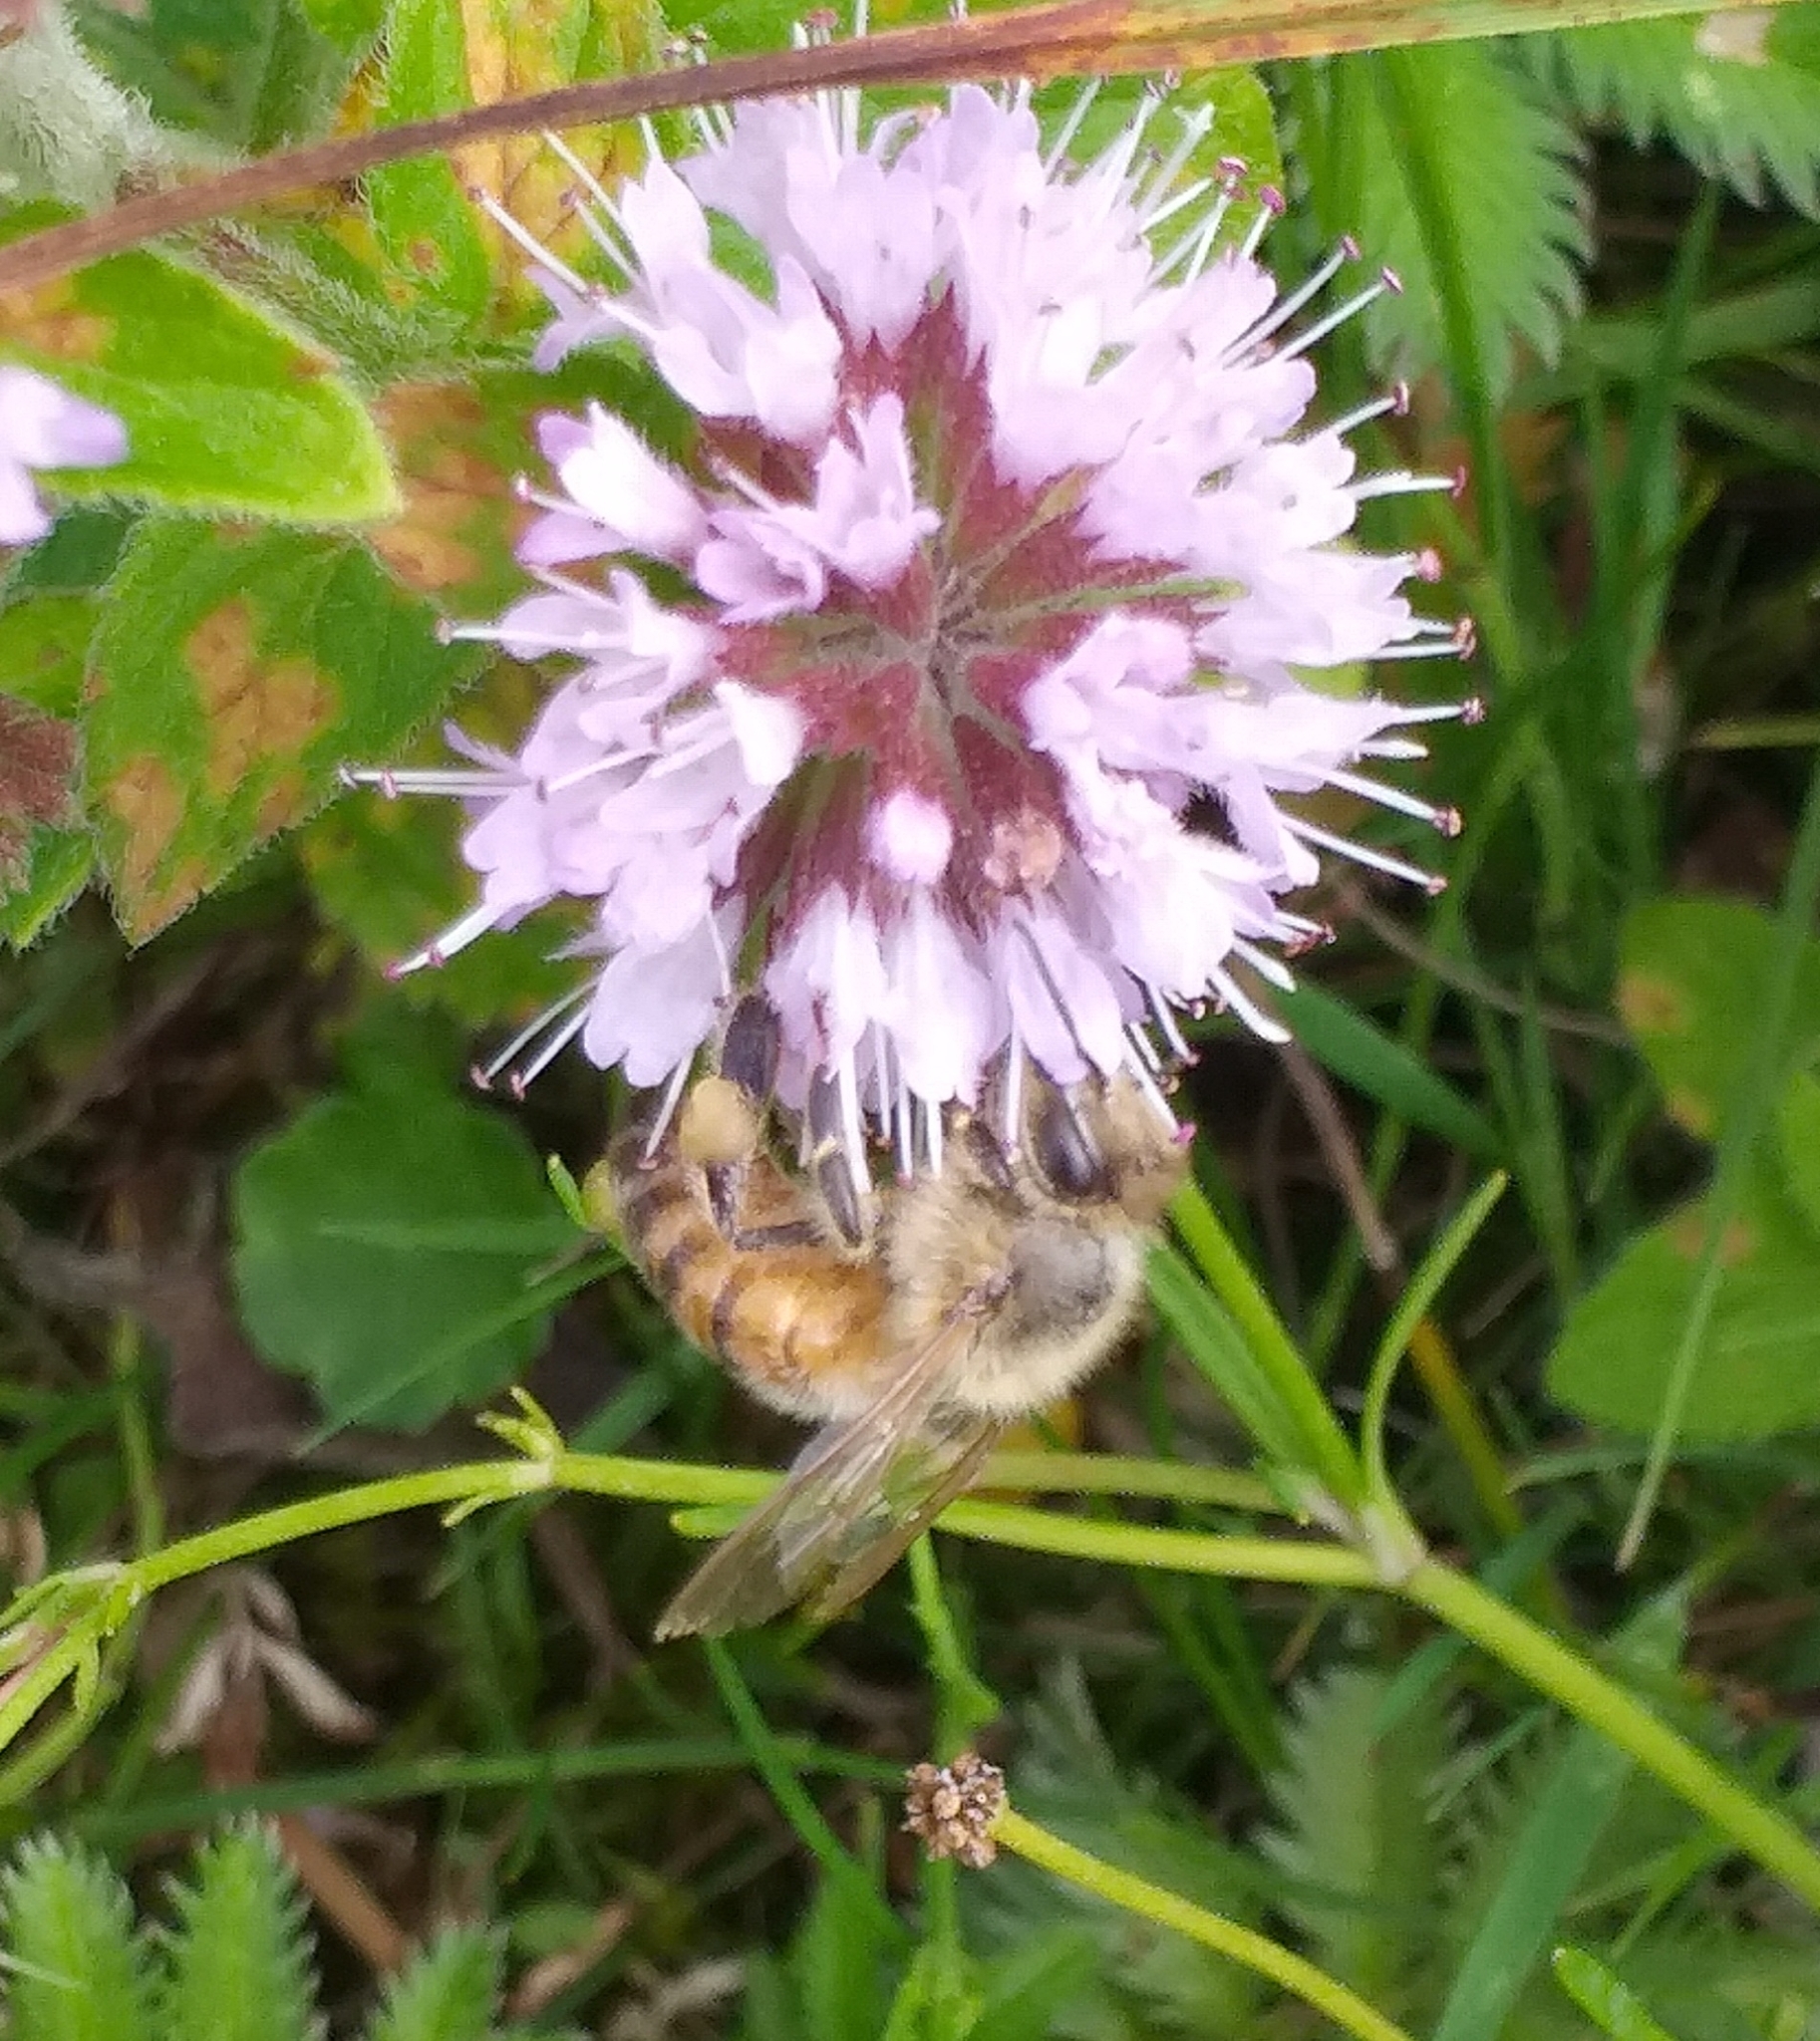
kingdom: Animalia
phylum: Arthropoda
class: Insecta
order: Hymenoptera
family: Apidae
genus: Apis
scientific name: Apis mellifera
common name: Honey bee
